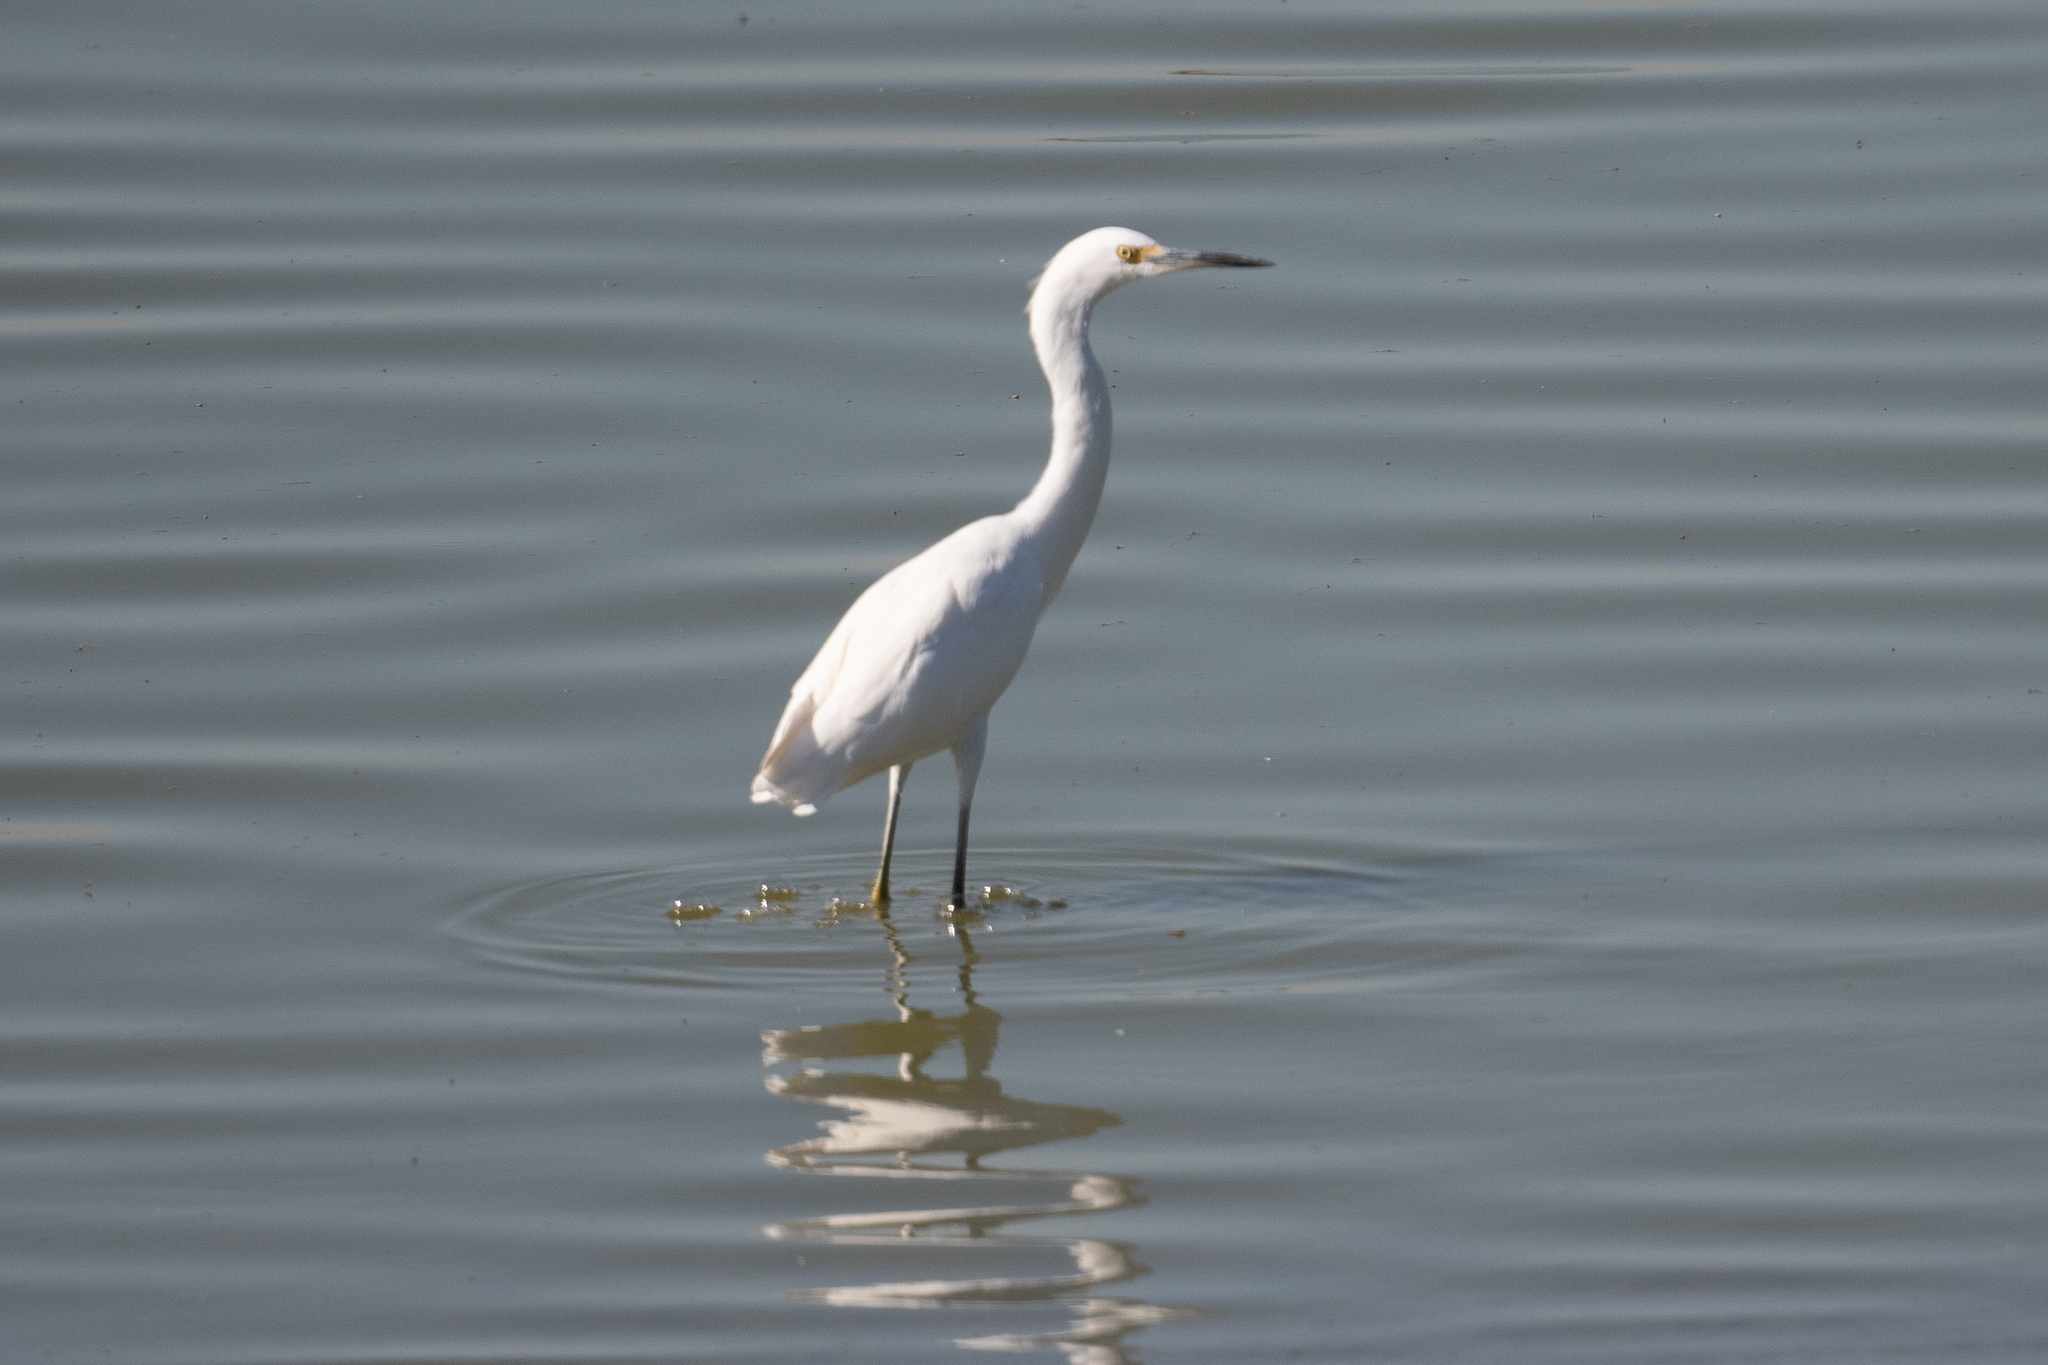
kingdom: Animalia
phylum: Chordata
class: Aves
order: Pelecaniformes
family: Ardeidae
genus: Egretta
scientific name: Egretta thula
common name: Snowy egret
